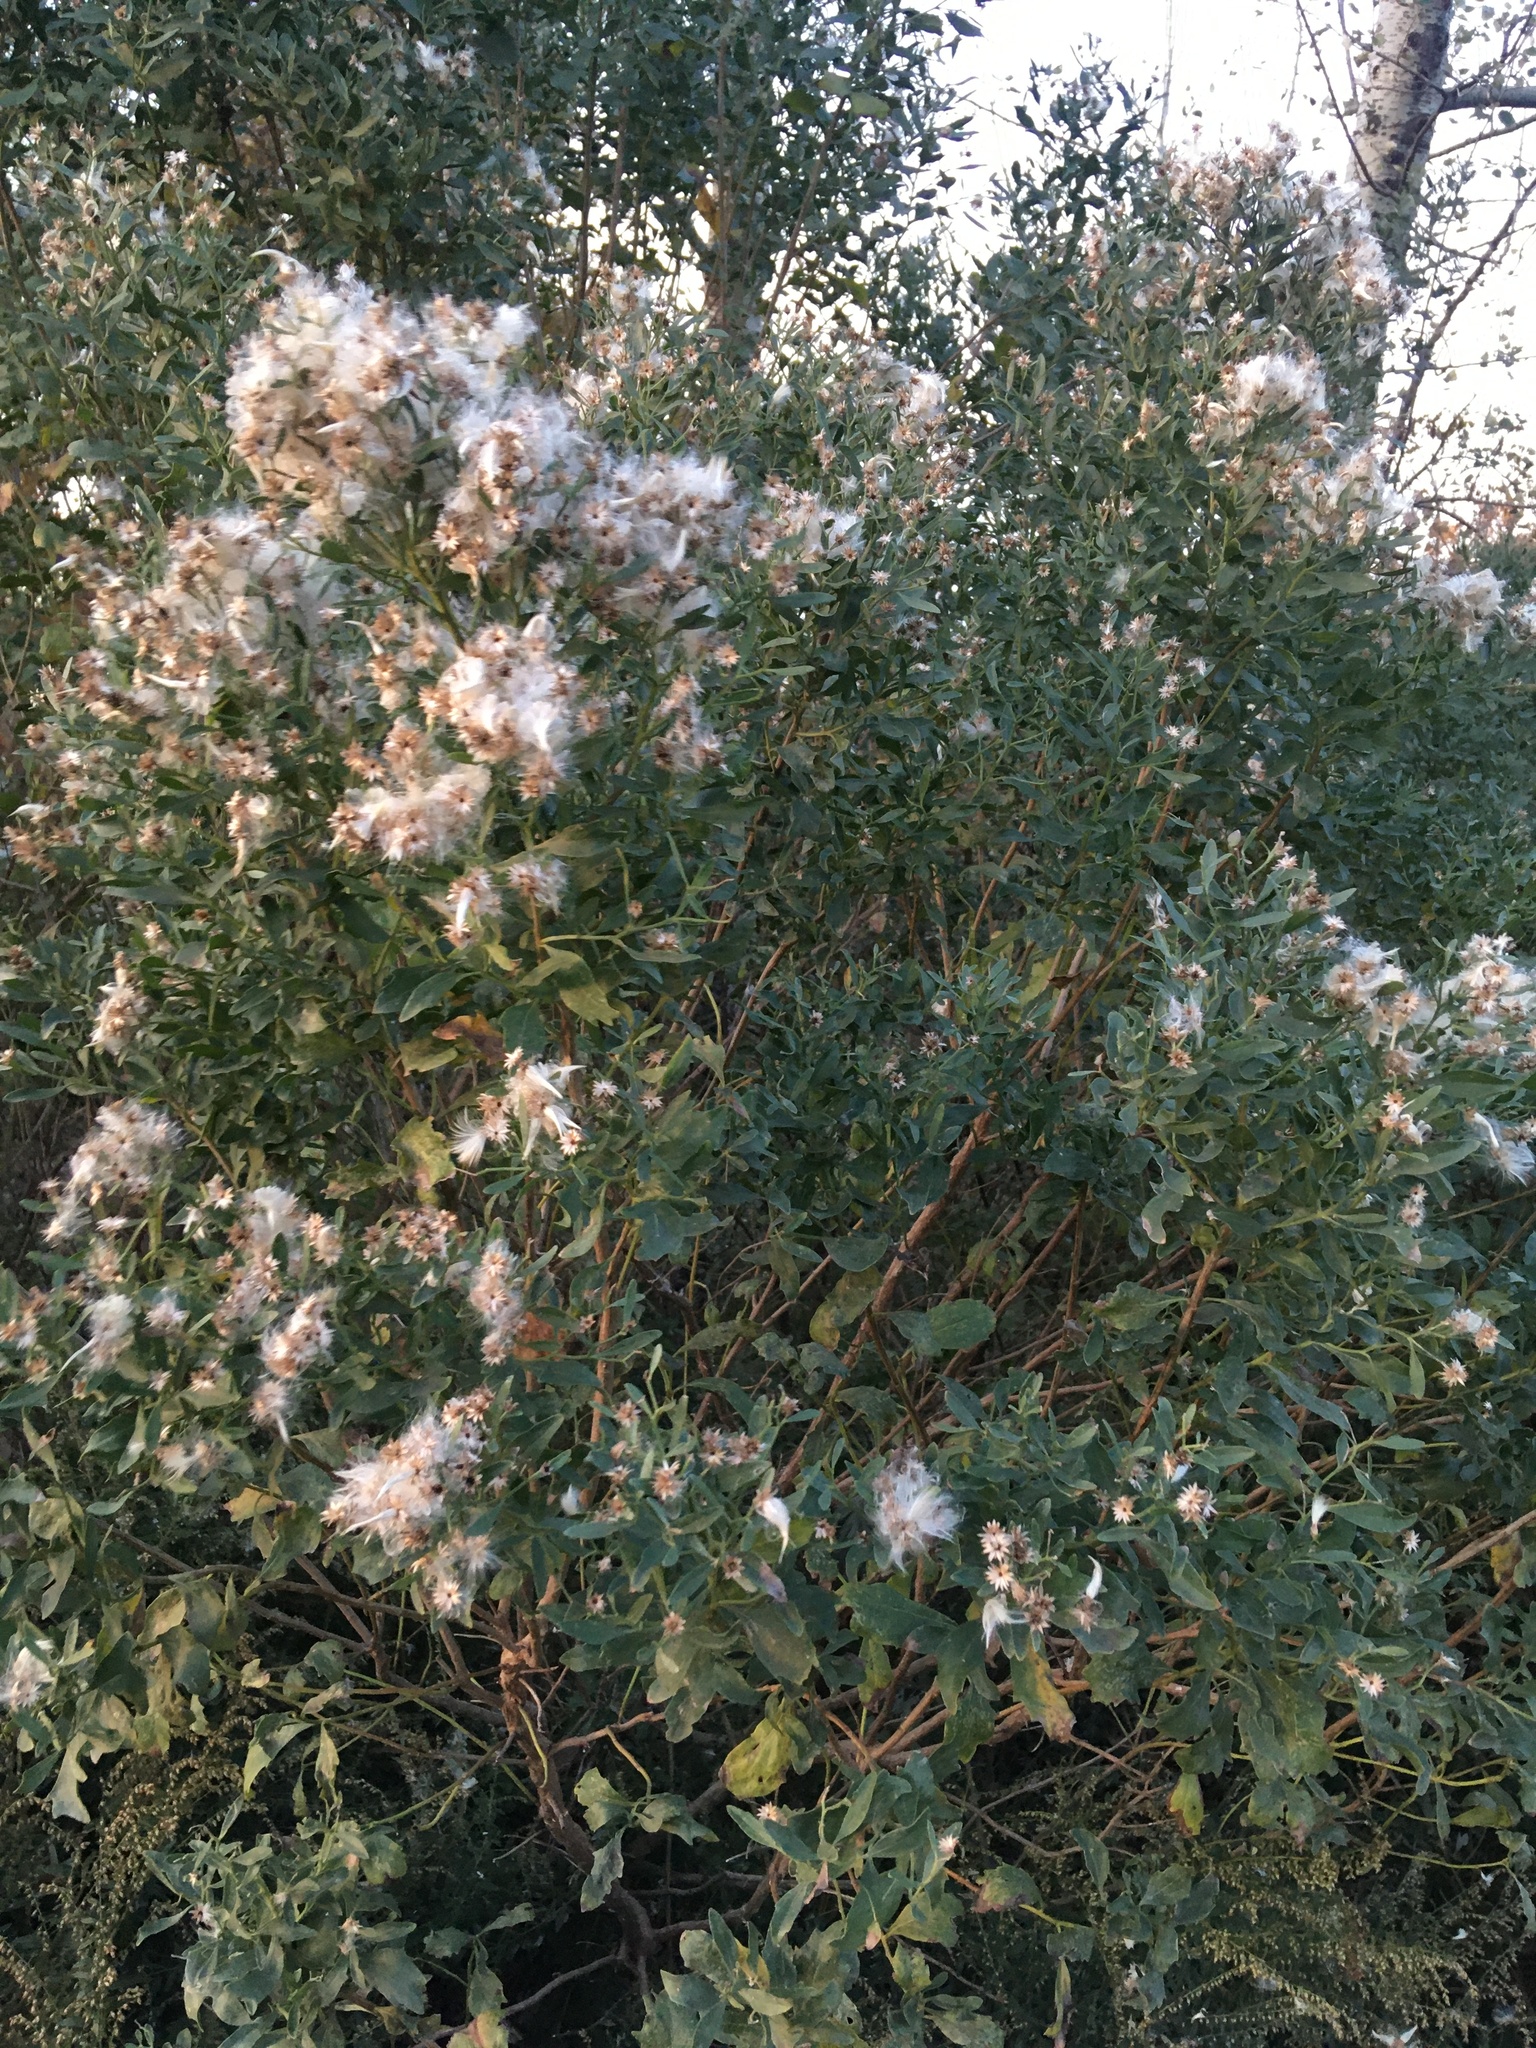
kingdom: Plantae
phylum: Tracheophyta
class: Magnoliopsida
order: Asterales
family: Asteraceae
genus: Baccharis
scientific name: Baccharis halimifolia
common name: Eastern baccharis
